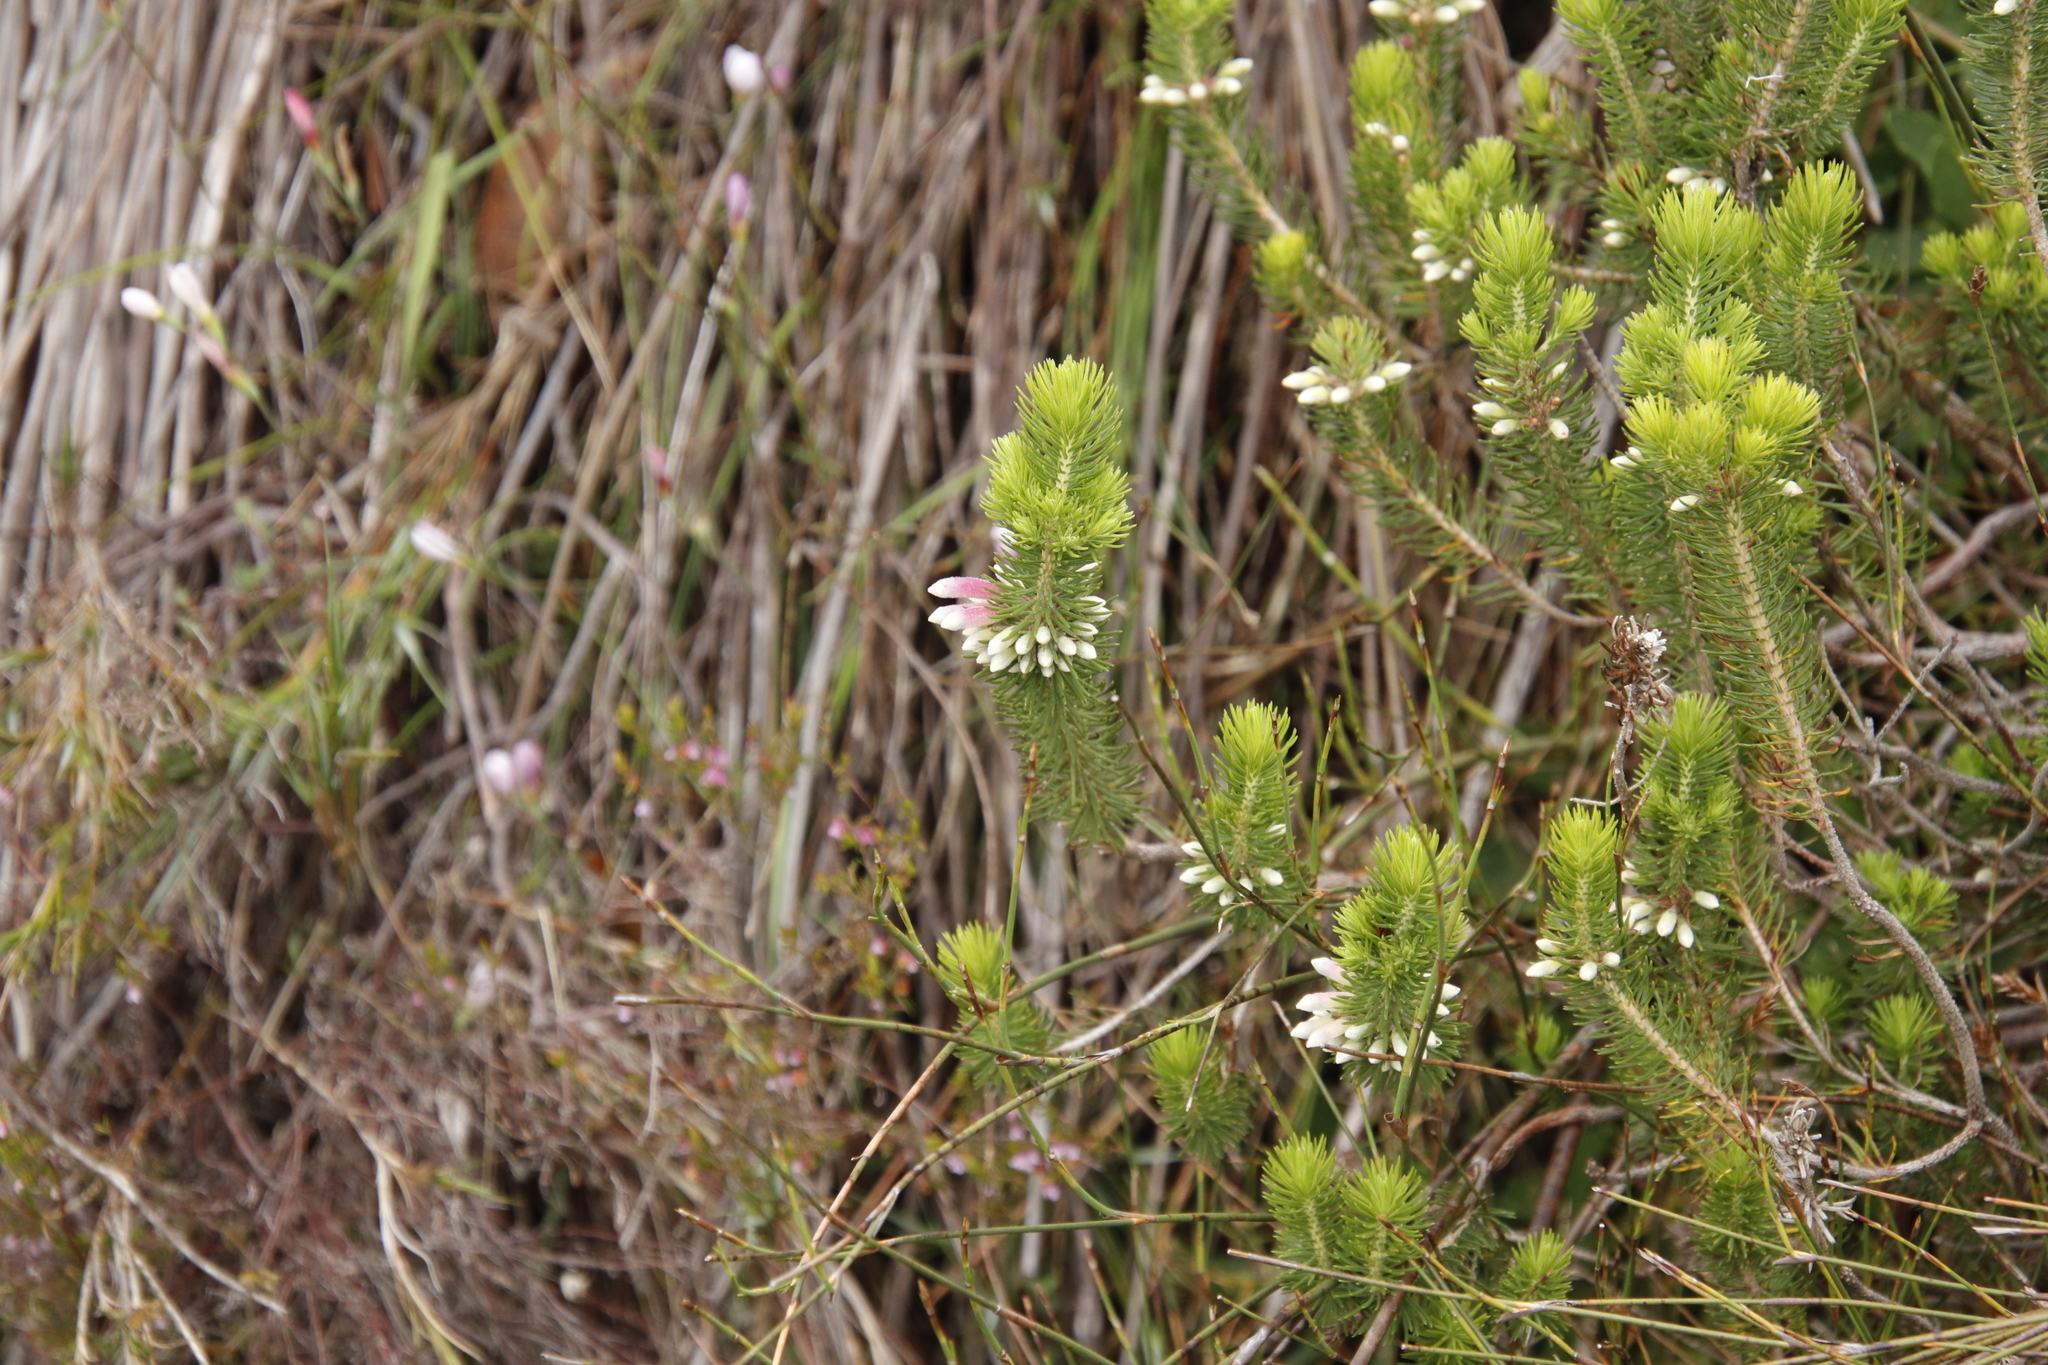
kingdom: Plantae
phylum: Tracheophyta
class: Magnoliopsida
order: Ericales
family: Ericaceae
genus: Erica
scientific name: Erica viscaria
